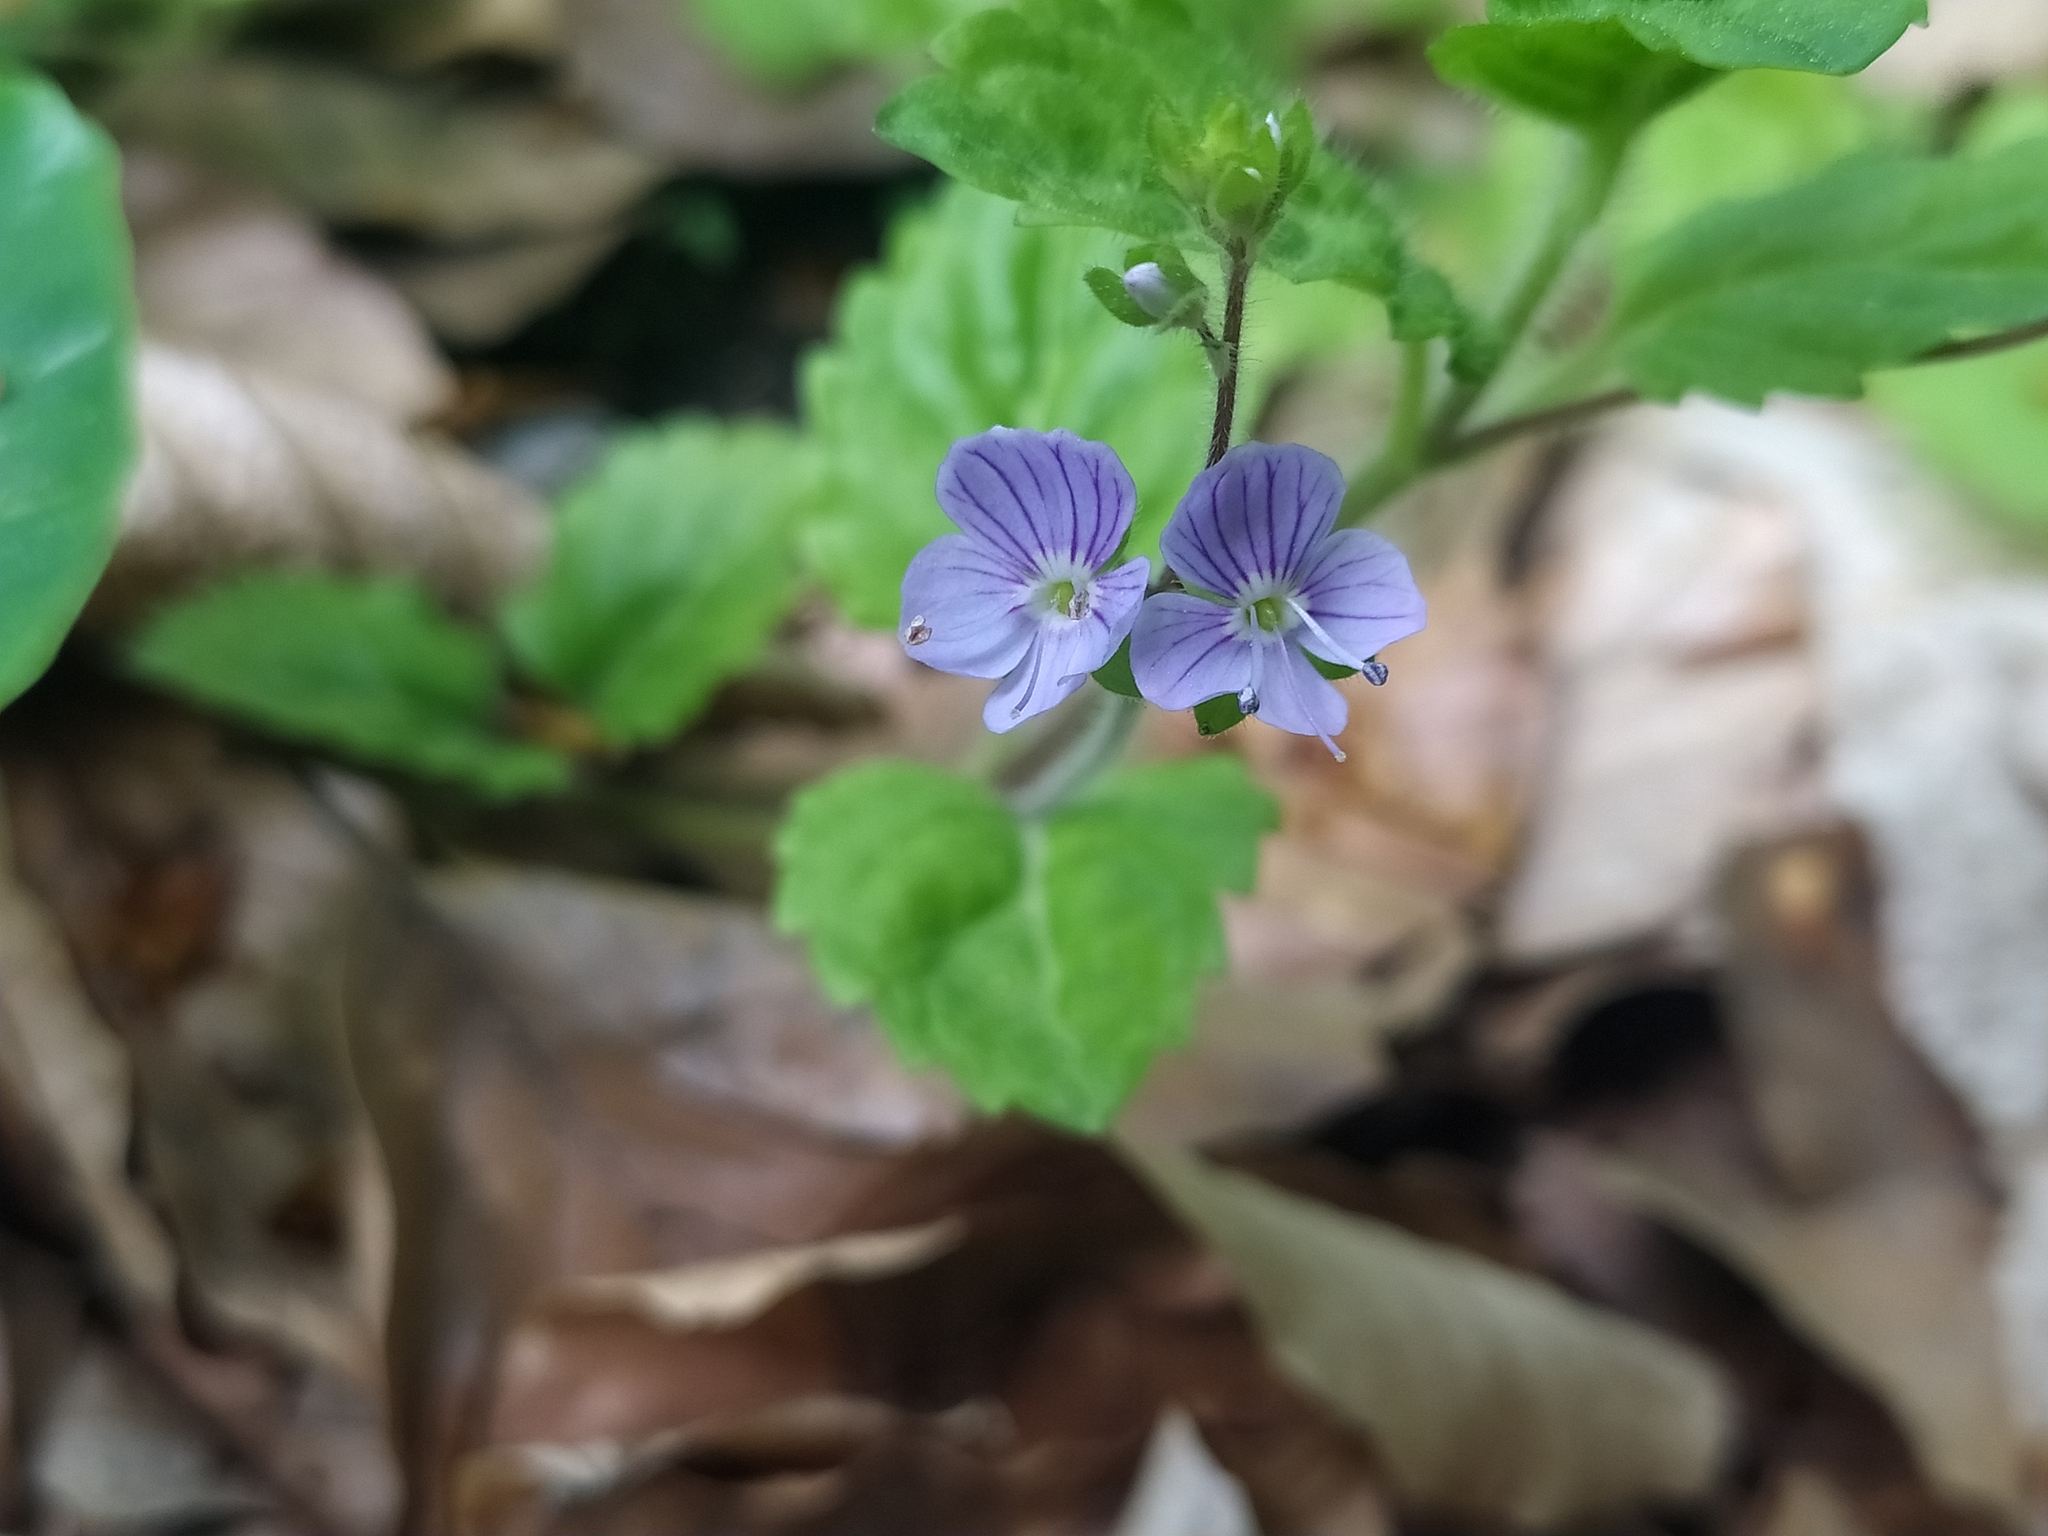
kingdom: Plantae
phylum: Tracheophyta
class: Magnoliopsida
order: Lamiales
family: Plantaginaceae
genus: Veronica
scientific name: Veronica montana
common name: Wood speedwell
